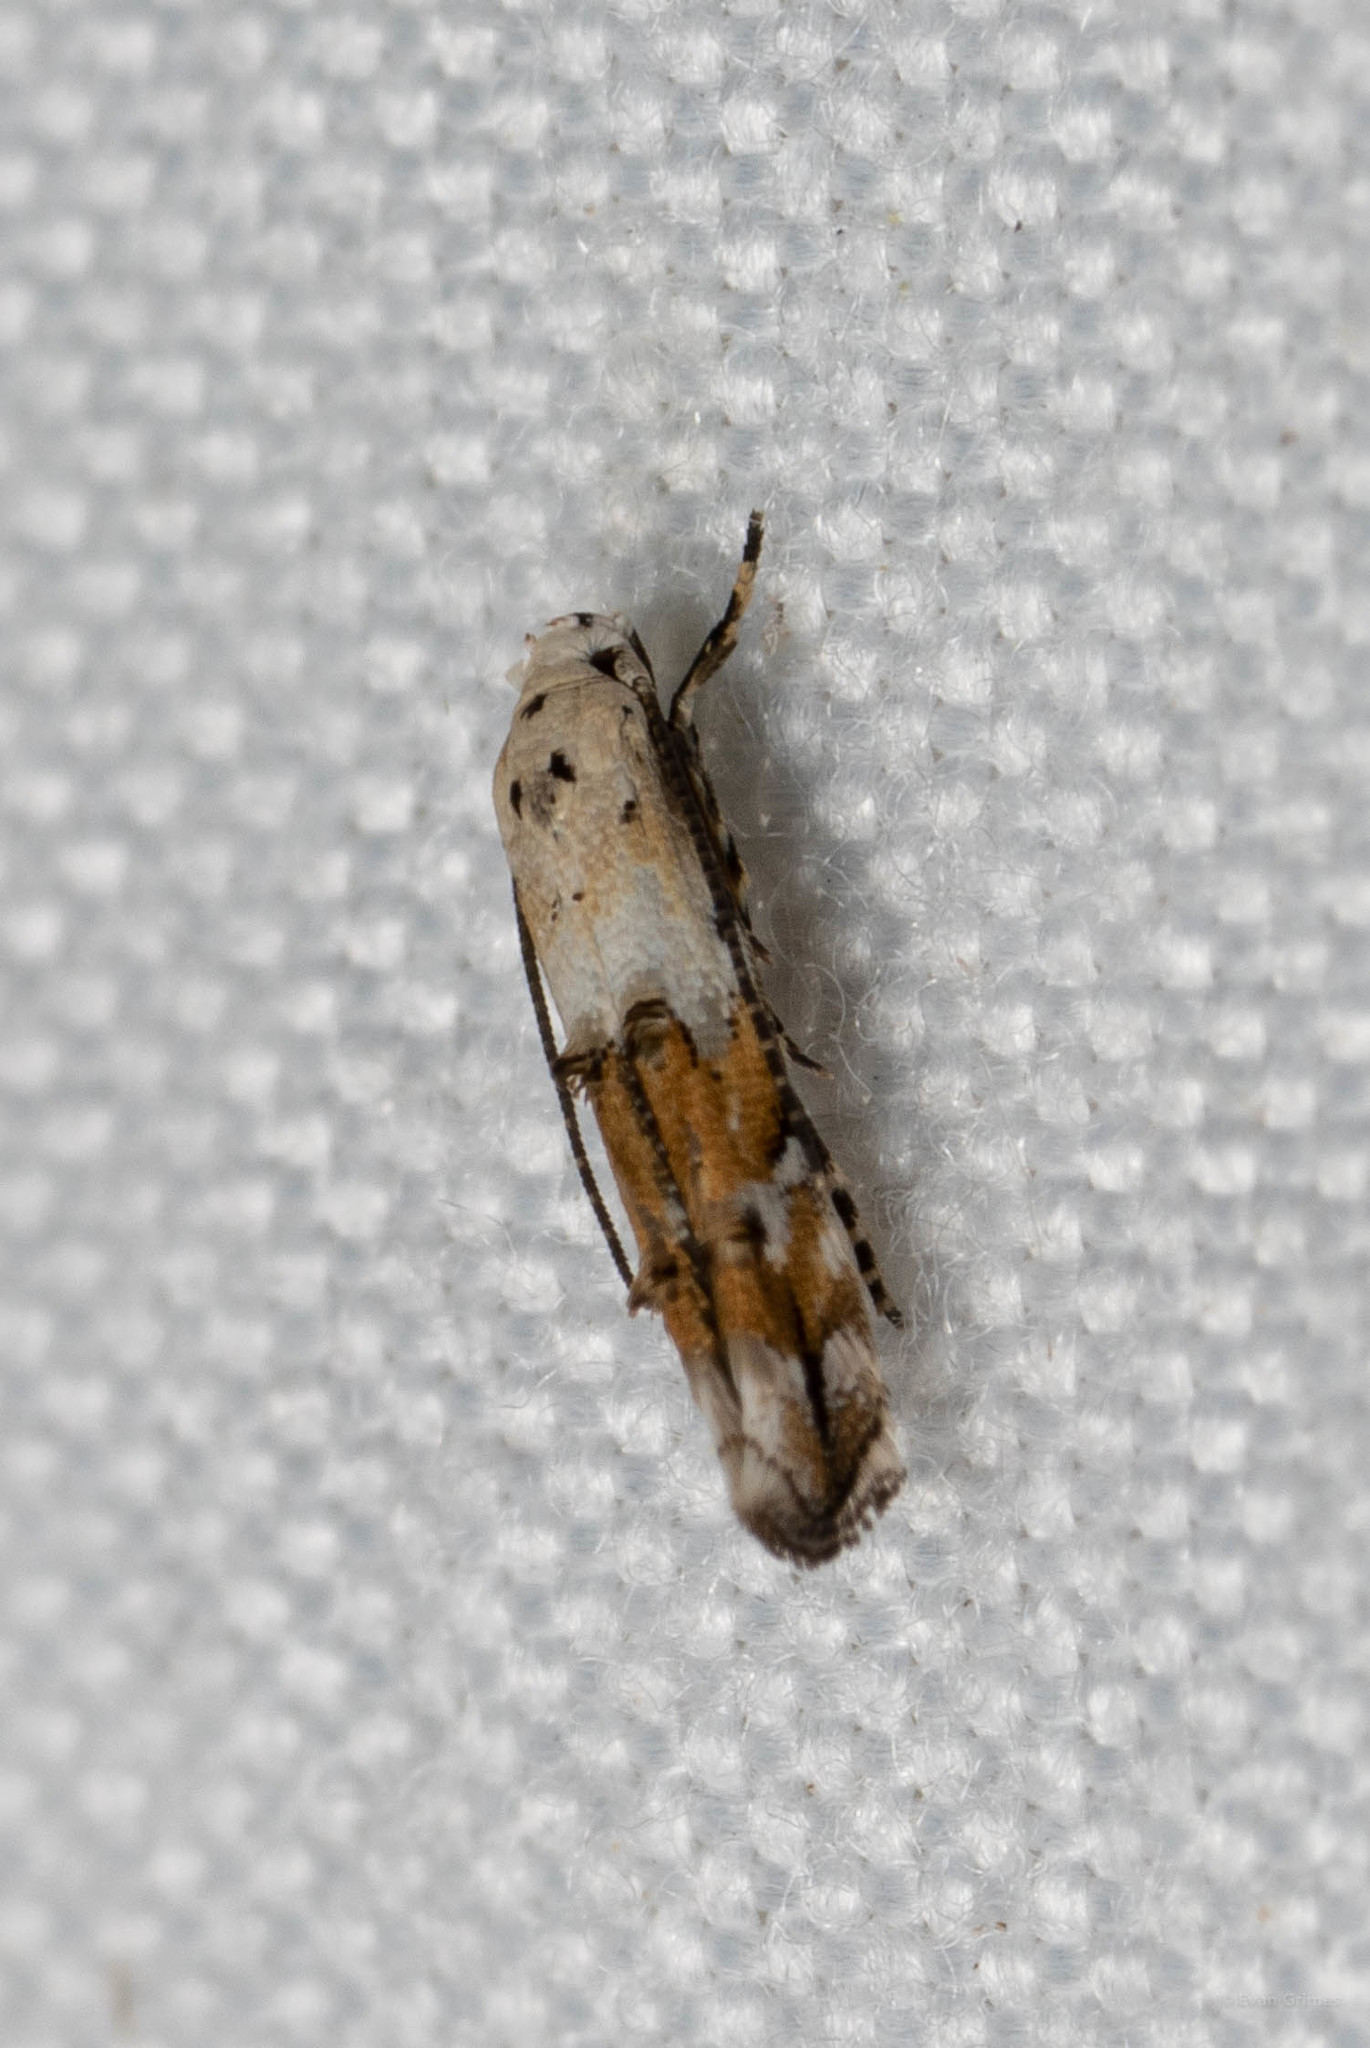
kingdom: Animalia
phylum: Arthropoda
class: Insecta
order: Lepidoptera
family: Momphidae
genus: Mompha
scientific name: Mompha passerella
